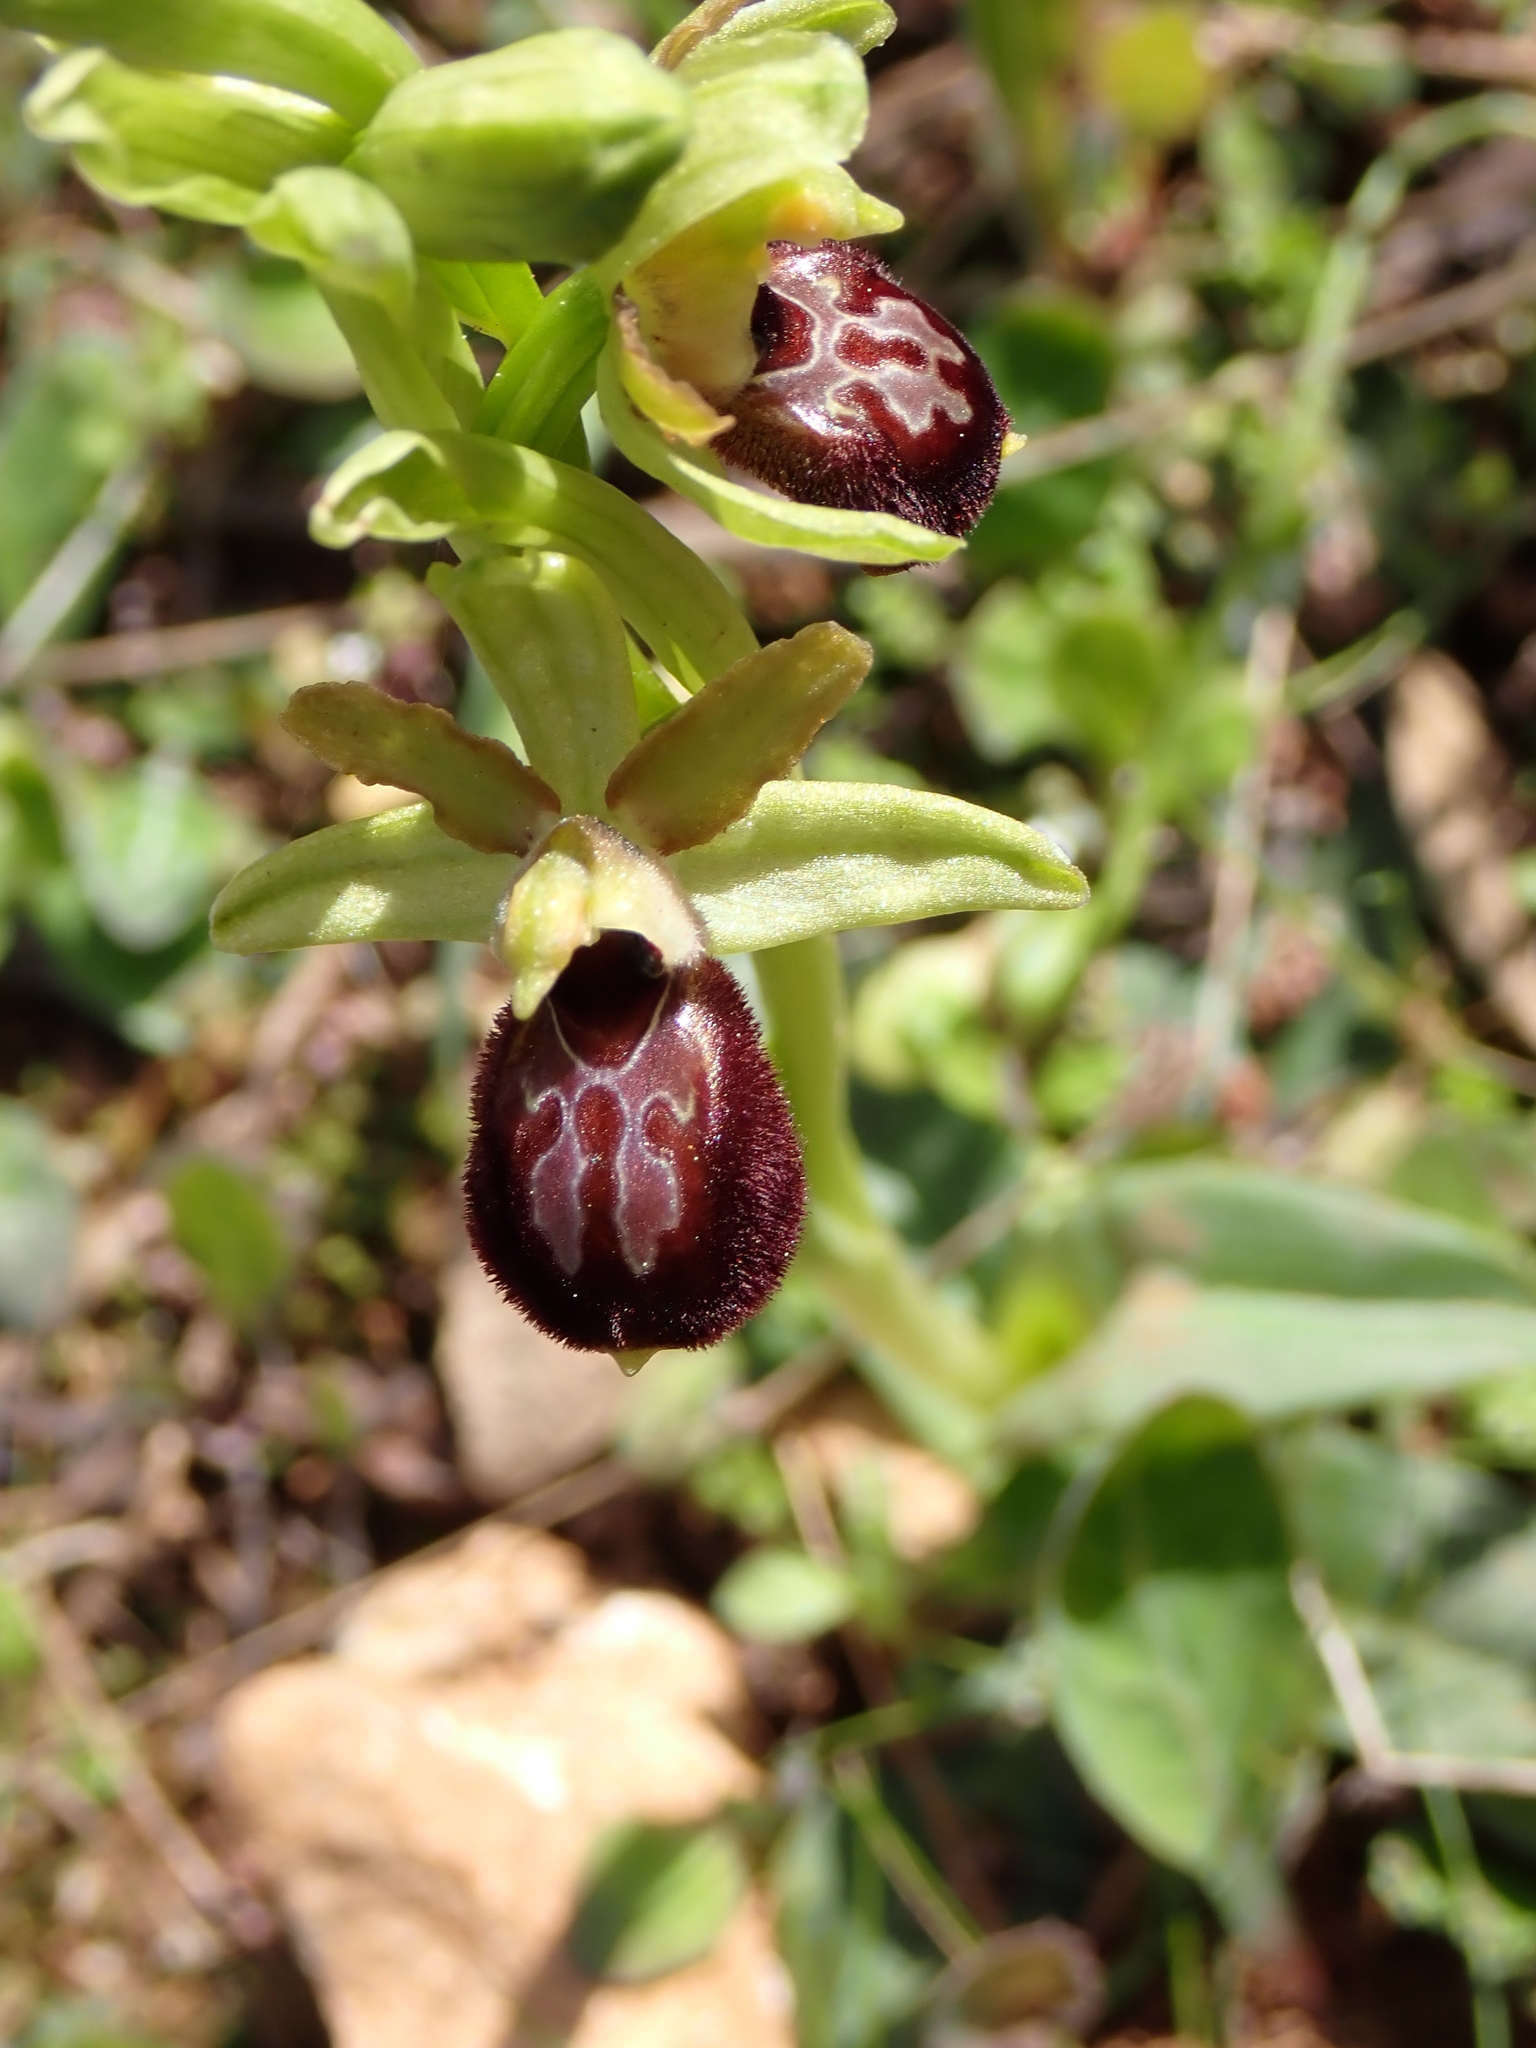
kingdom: Plantae
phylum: Tracheophyta
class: Liliopsida
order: Asparagales
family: Orchidaceae
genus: Ophrys
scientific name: Ophrys sphegodes
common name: Early spider-orchid
